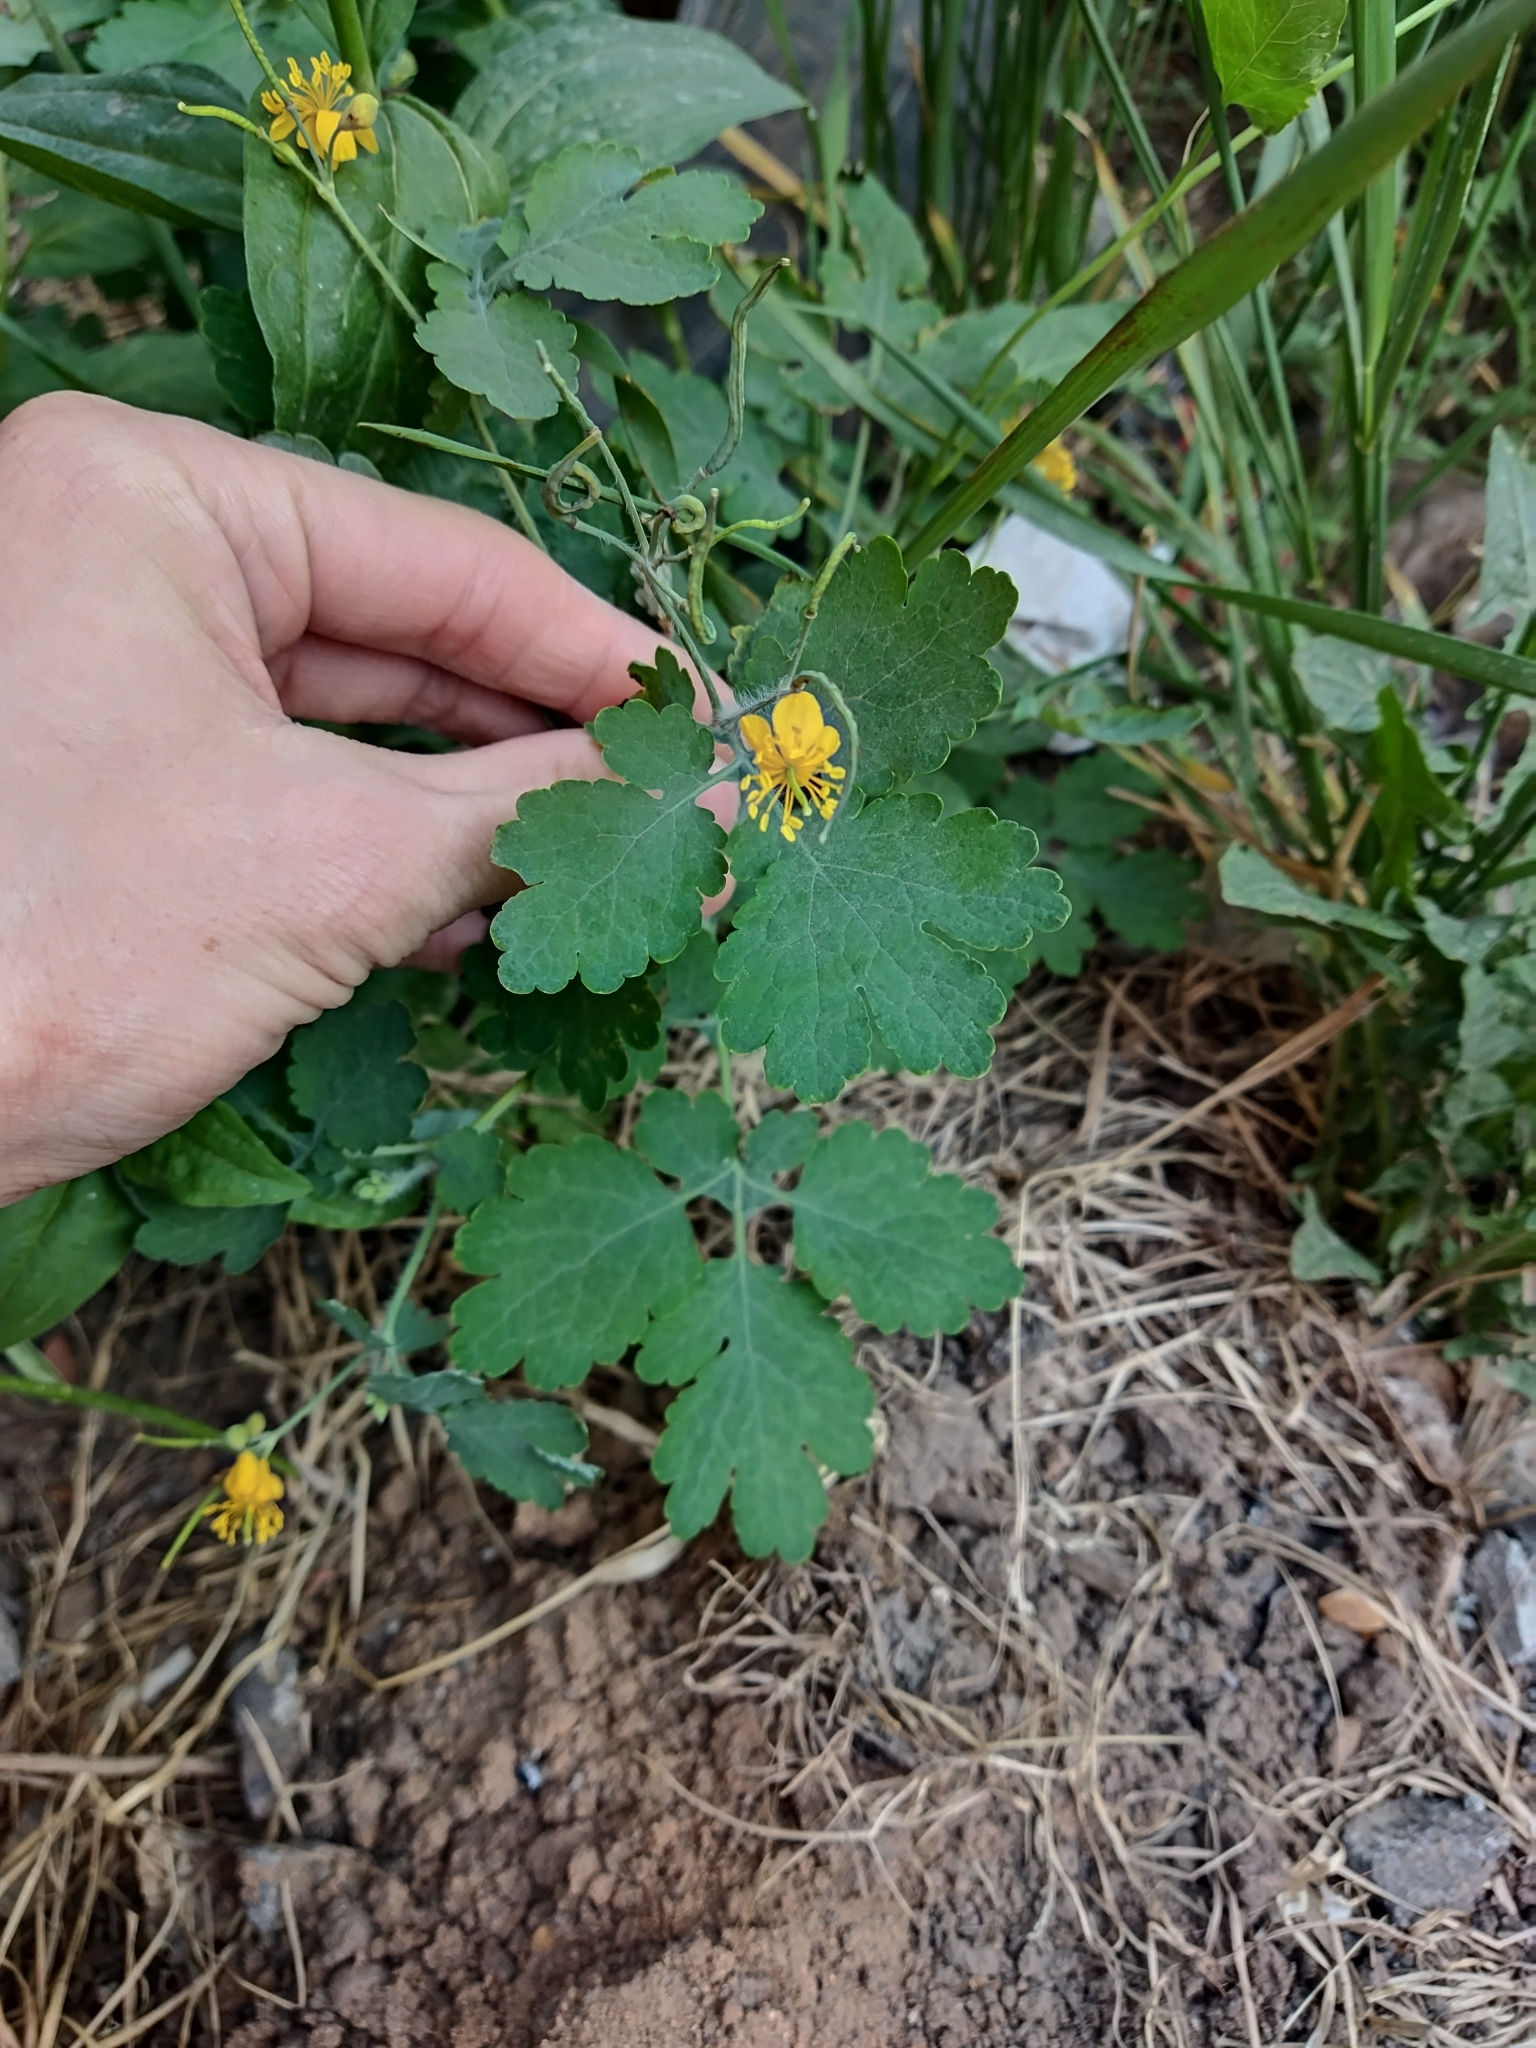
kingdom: Plantae
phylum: Tracheophyta
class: Magnoliopsida
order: Ranunculales
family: Papaveraceae
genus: Chelidonium
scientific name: Chelidonium majus
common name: Greater celandine
